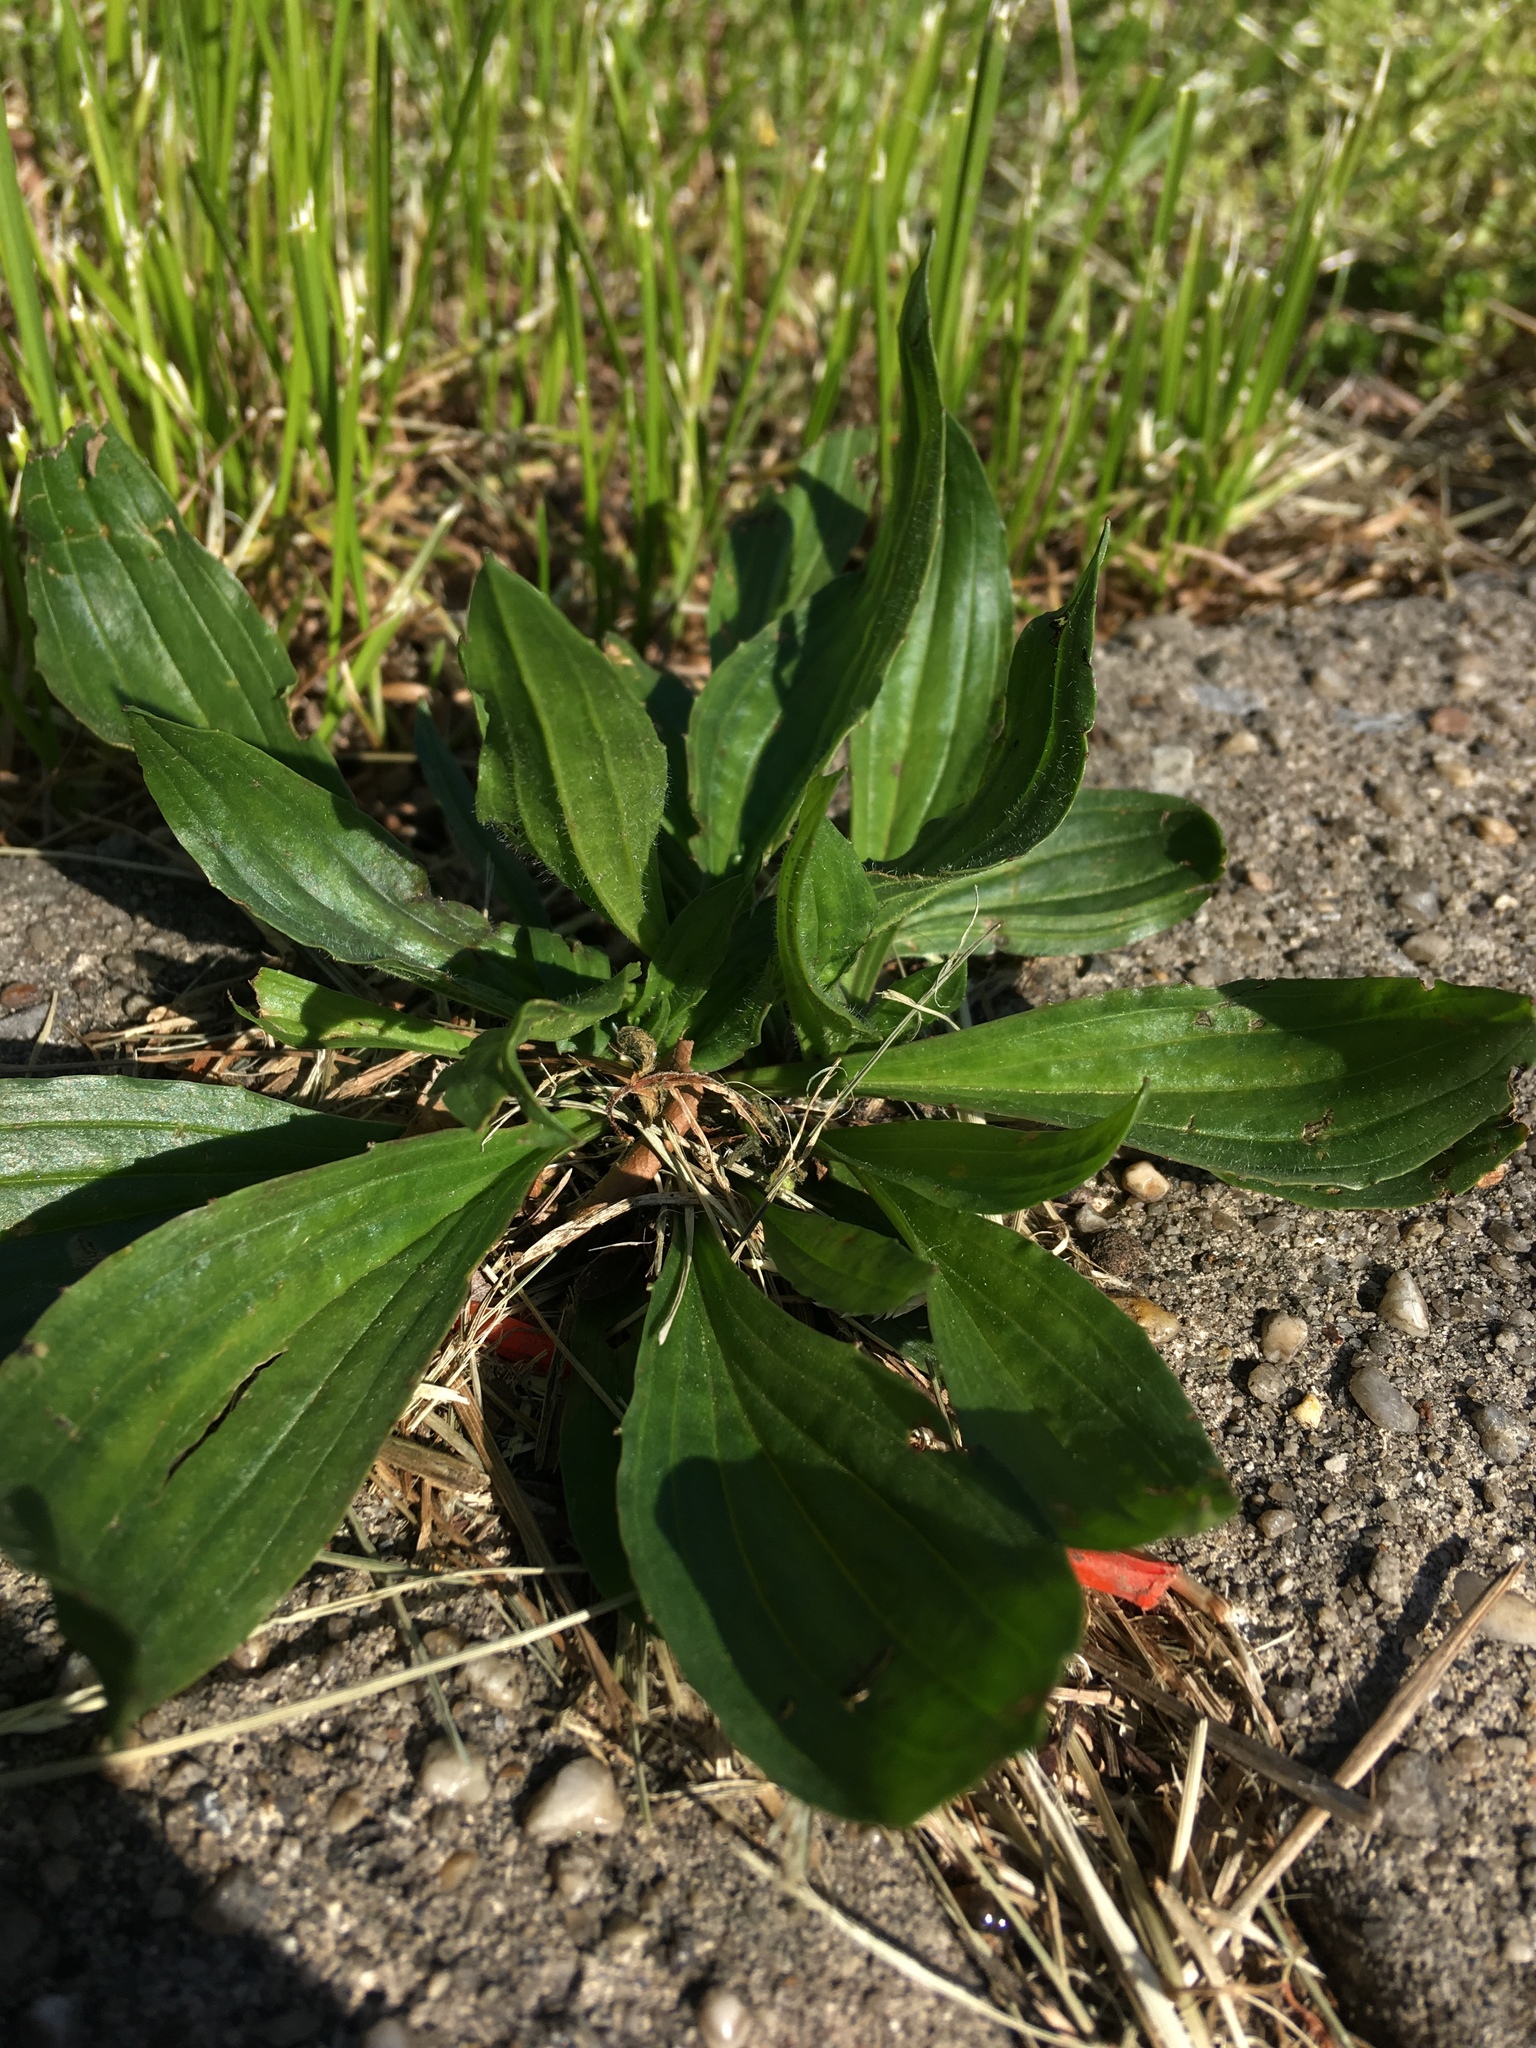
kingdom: Plantae
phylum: Tracheophyta
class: Magnoliopsida
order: Lamiales
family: Plantaginaceae
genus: Plantago
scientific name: Plantago lanceolata
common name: Ribwort plantain
